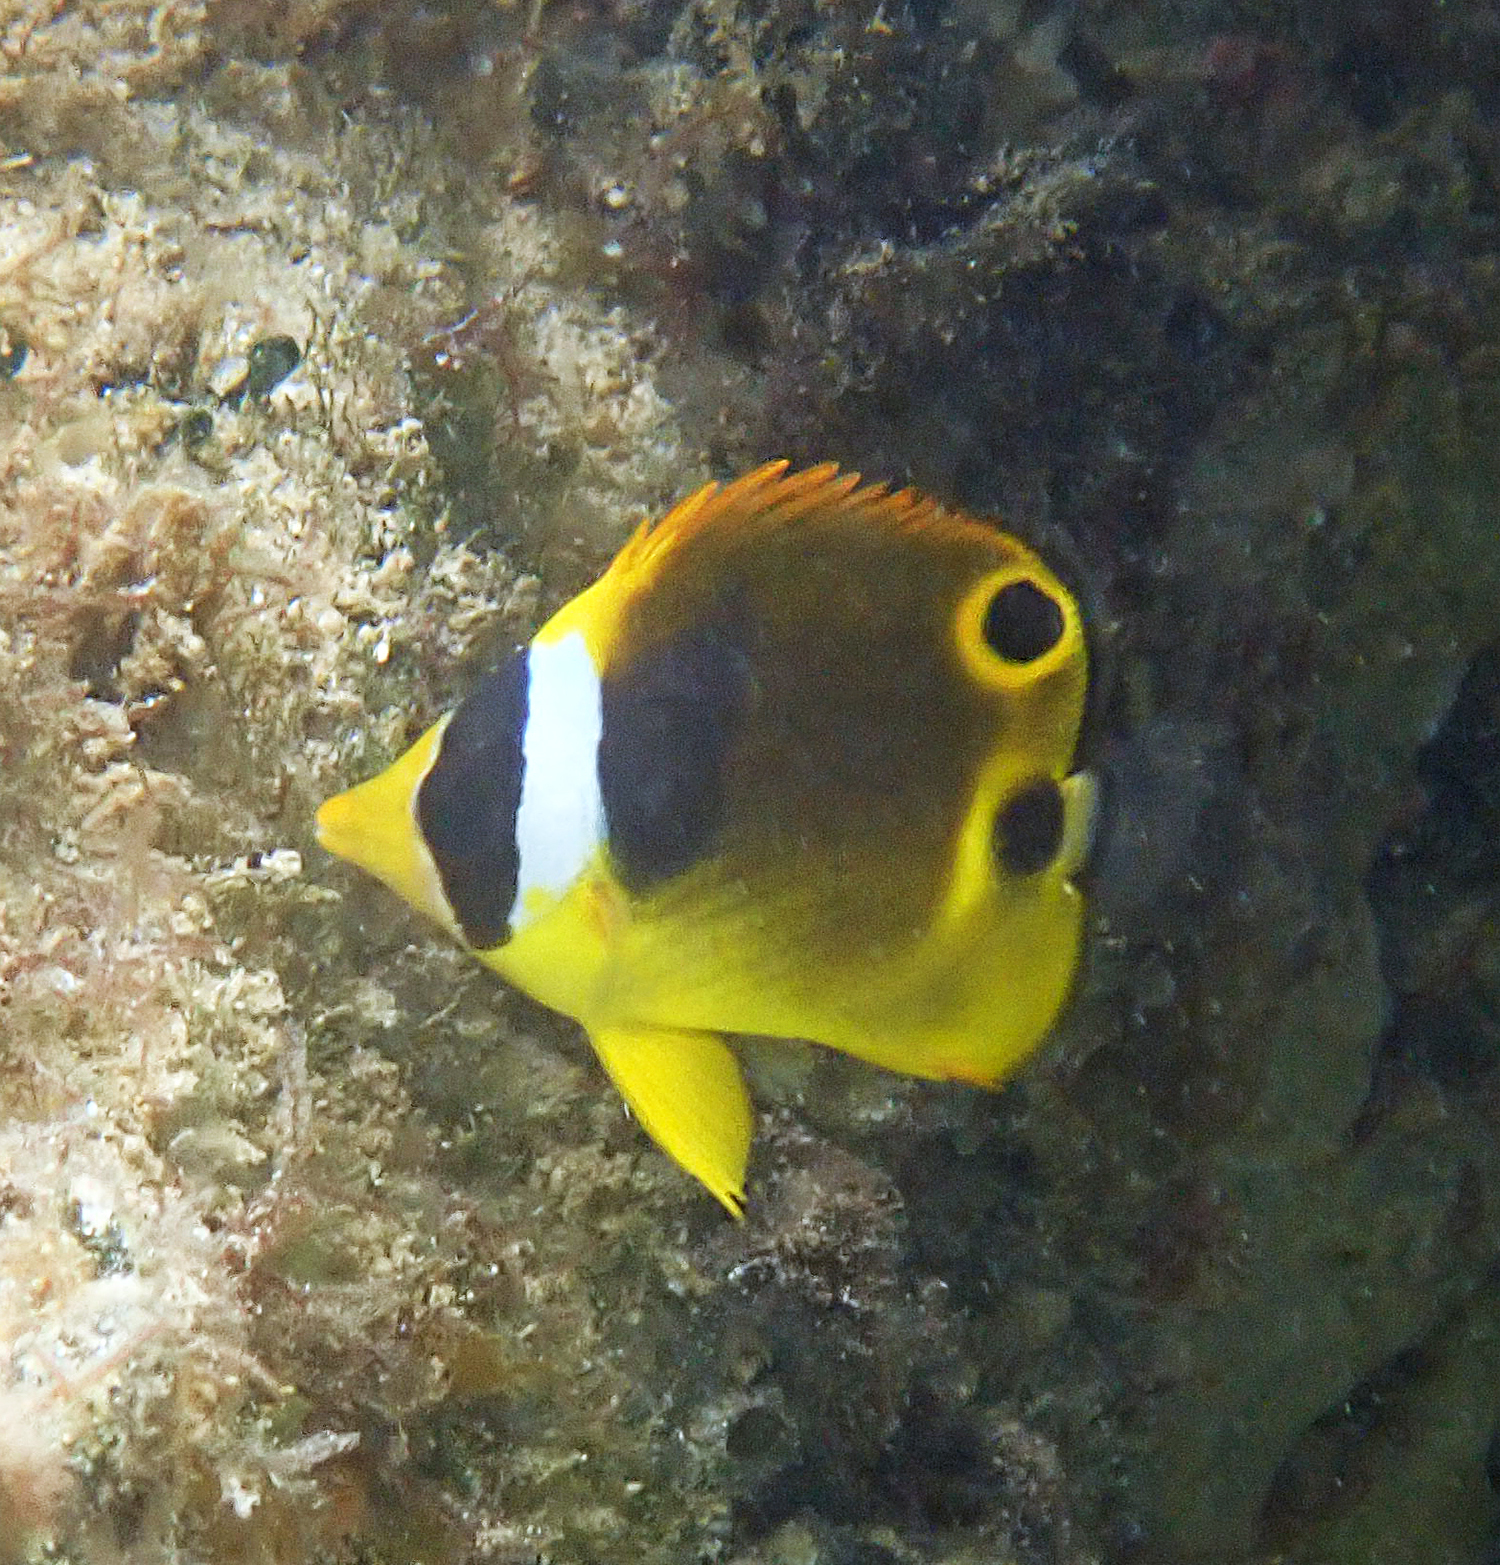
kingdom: Animalia
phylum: Chordata
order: Perciformes
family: Chaetodontidae
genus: Chaetodon
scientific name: Chaetodon lunula
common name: Raccoon butterflyfish
